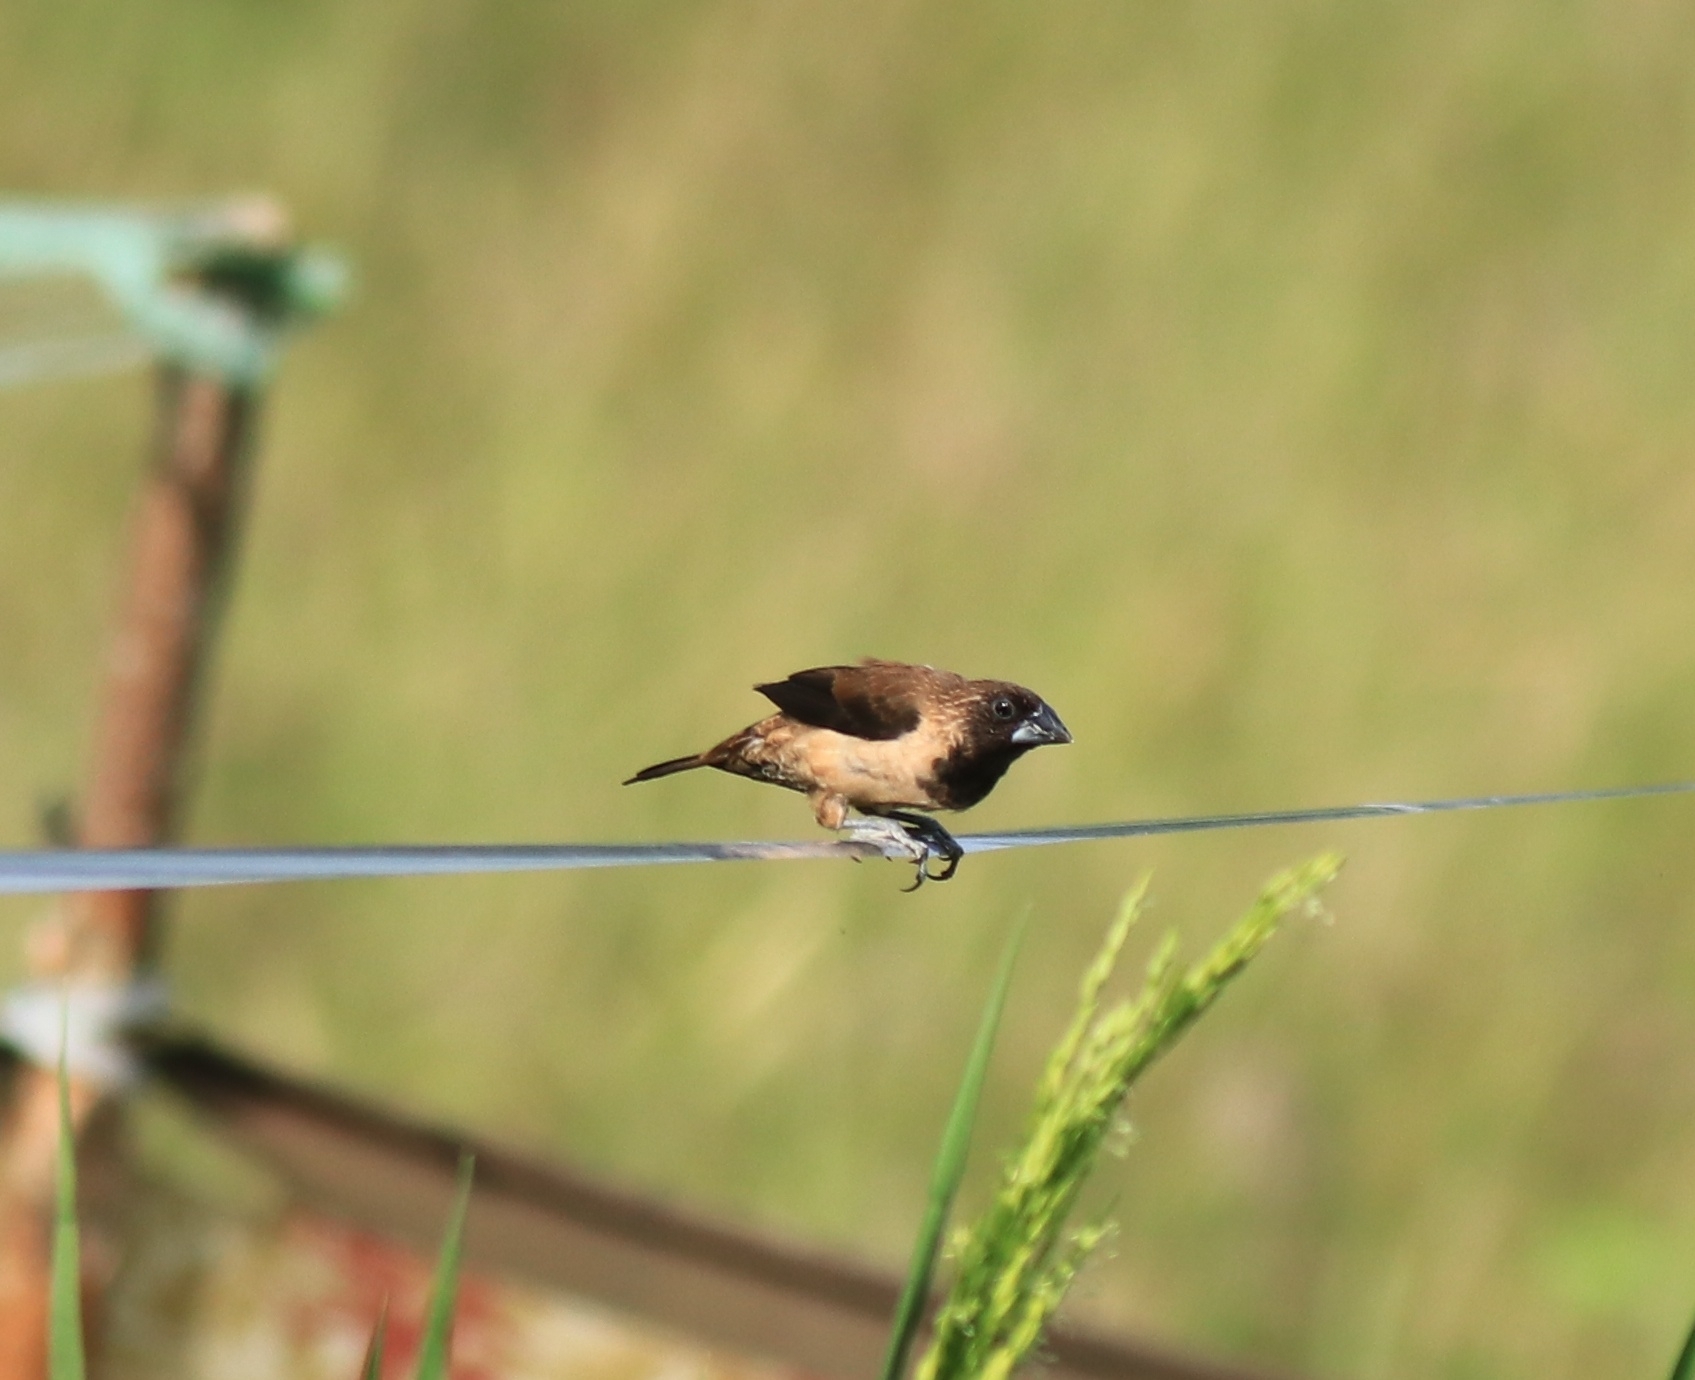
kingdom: Animalia
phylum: Chordata
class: Aves
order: Passeriformes
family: Estrildidae
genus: Lonchura
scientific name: Lonchura kelaarti
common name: Black-throated munia
